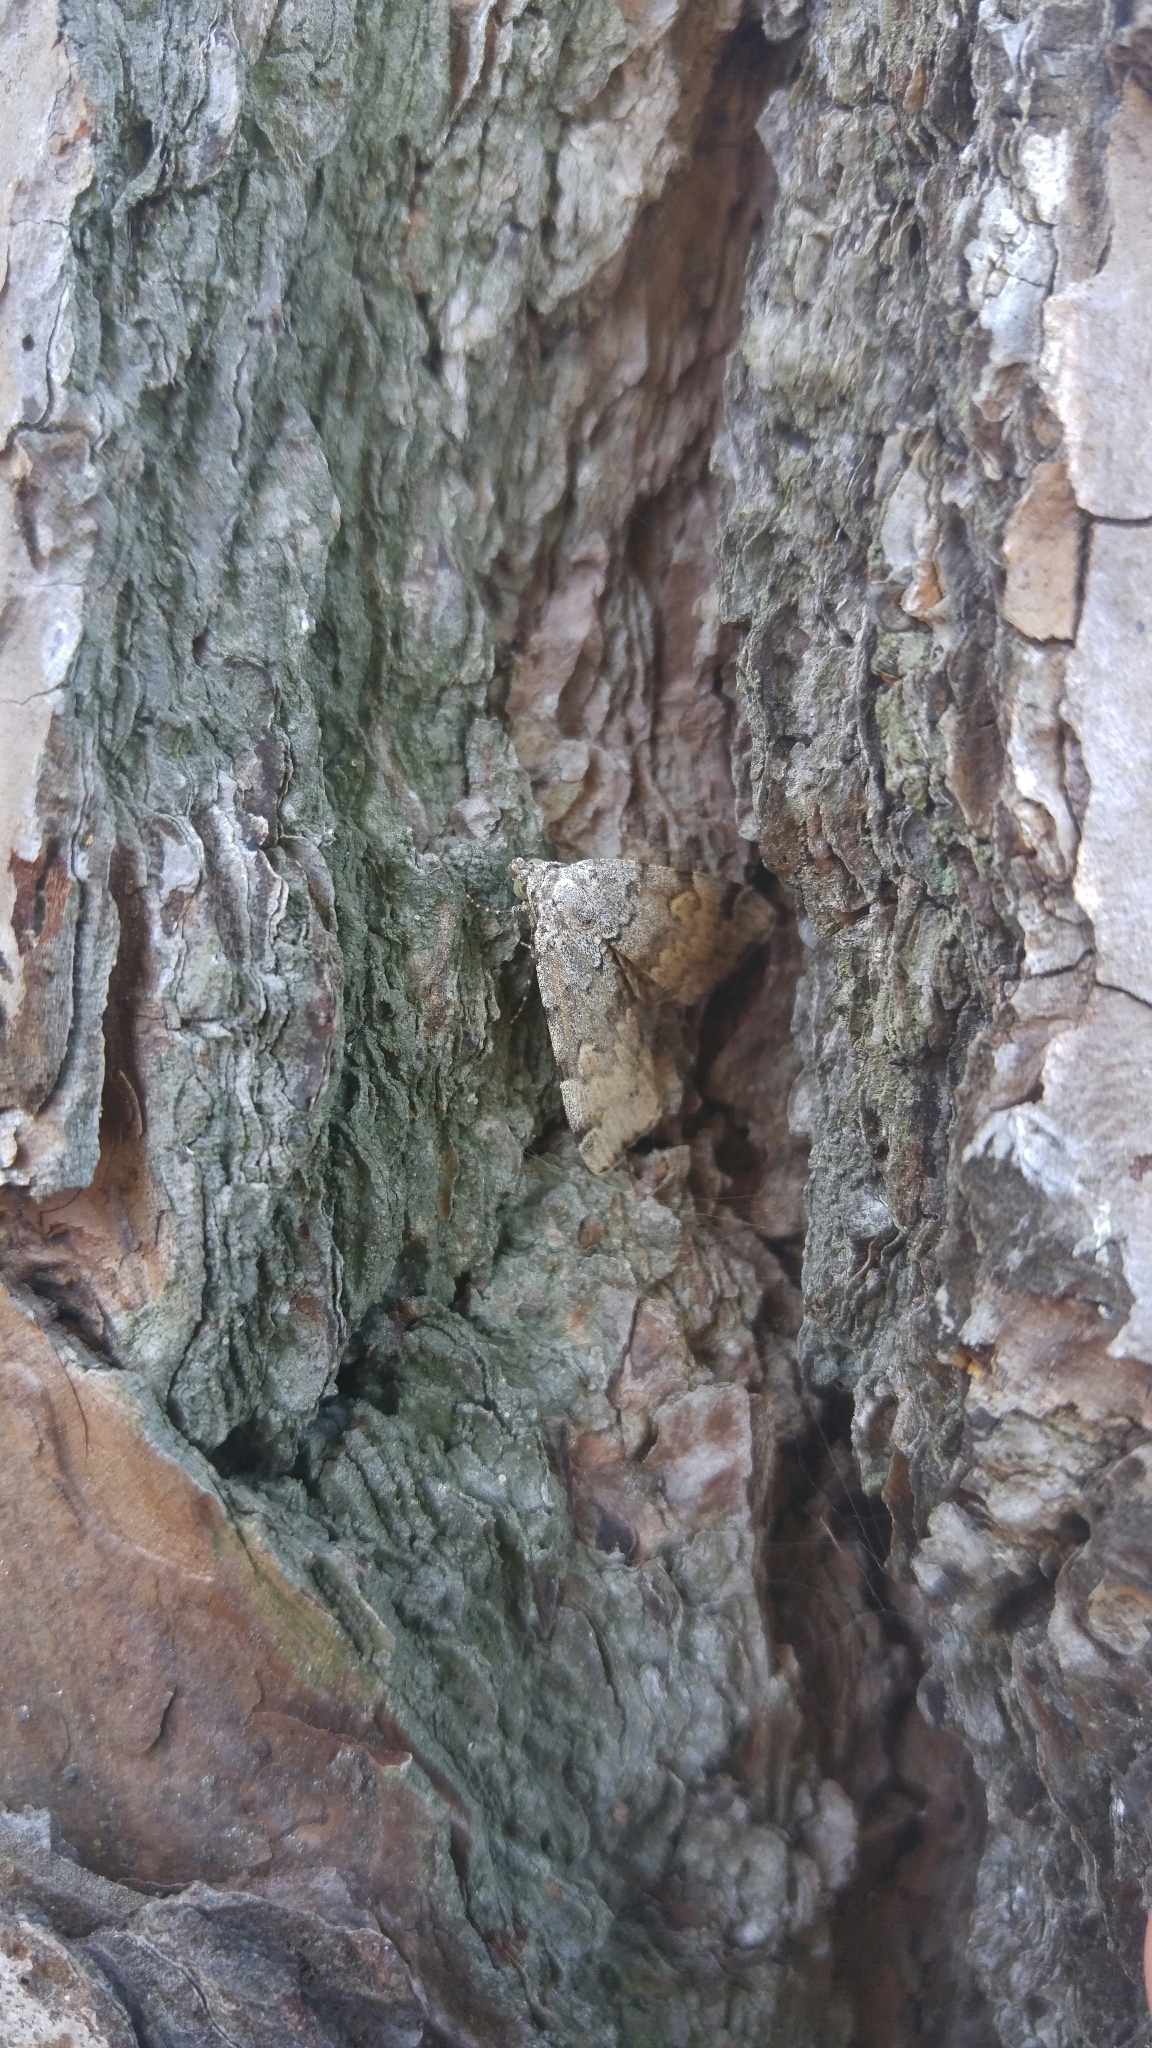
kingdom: Animalia
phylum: Arthropoda
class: Insecta
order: Lepidoptera
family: Erebidae
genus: Idia
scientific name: Idia americalis
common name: American idia moth
